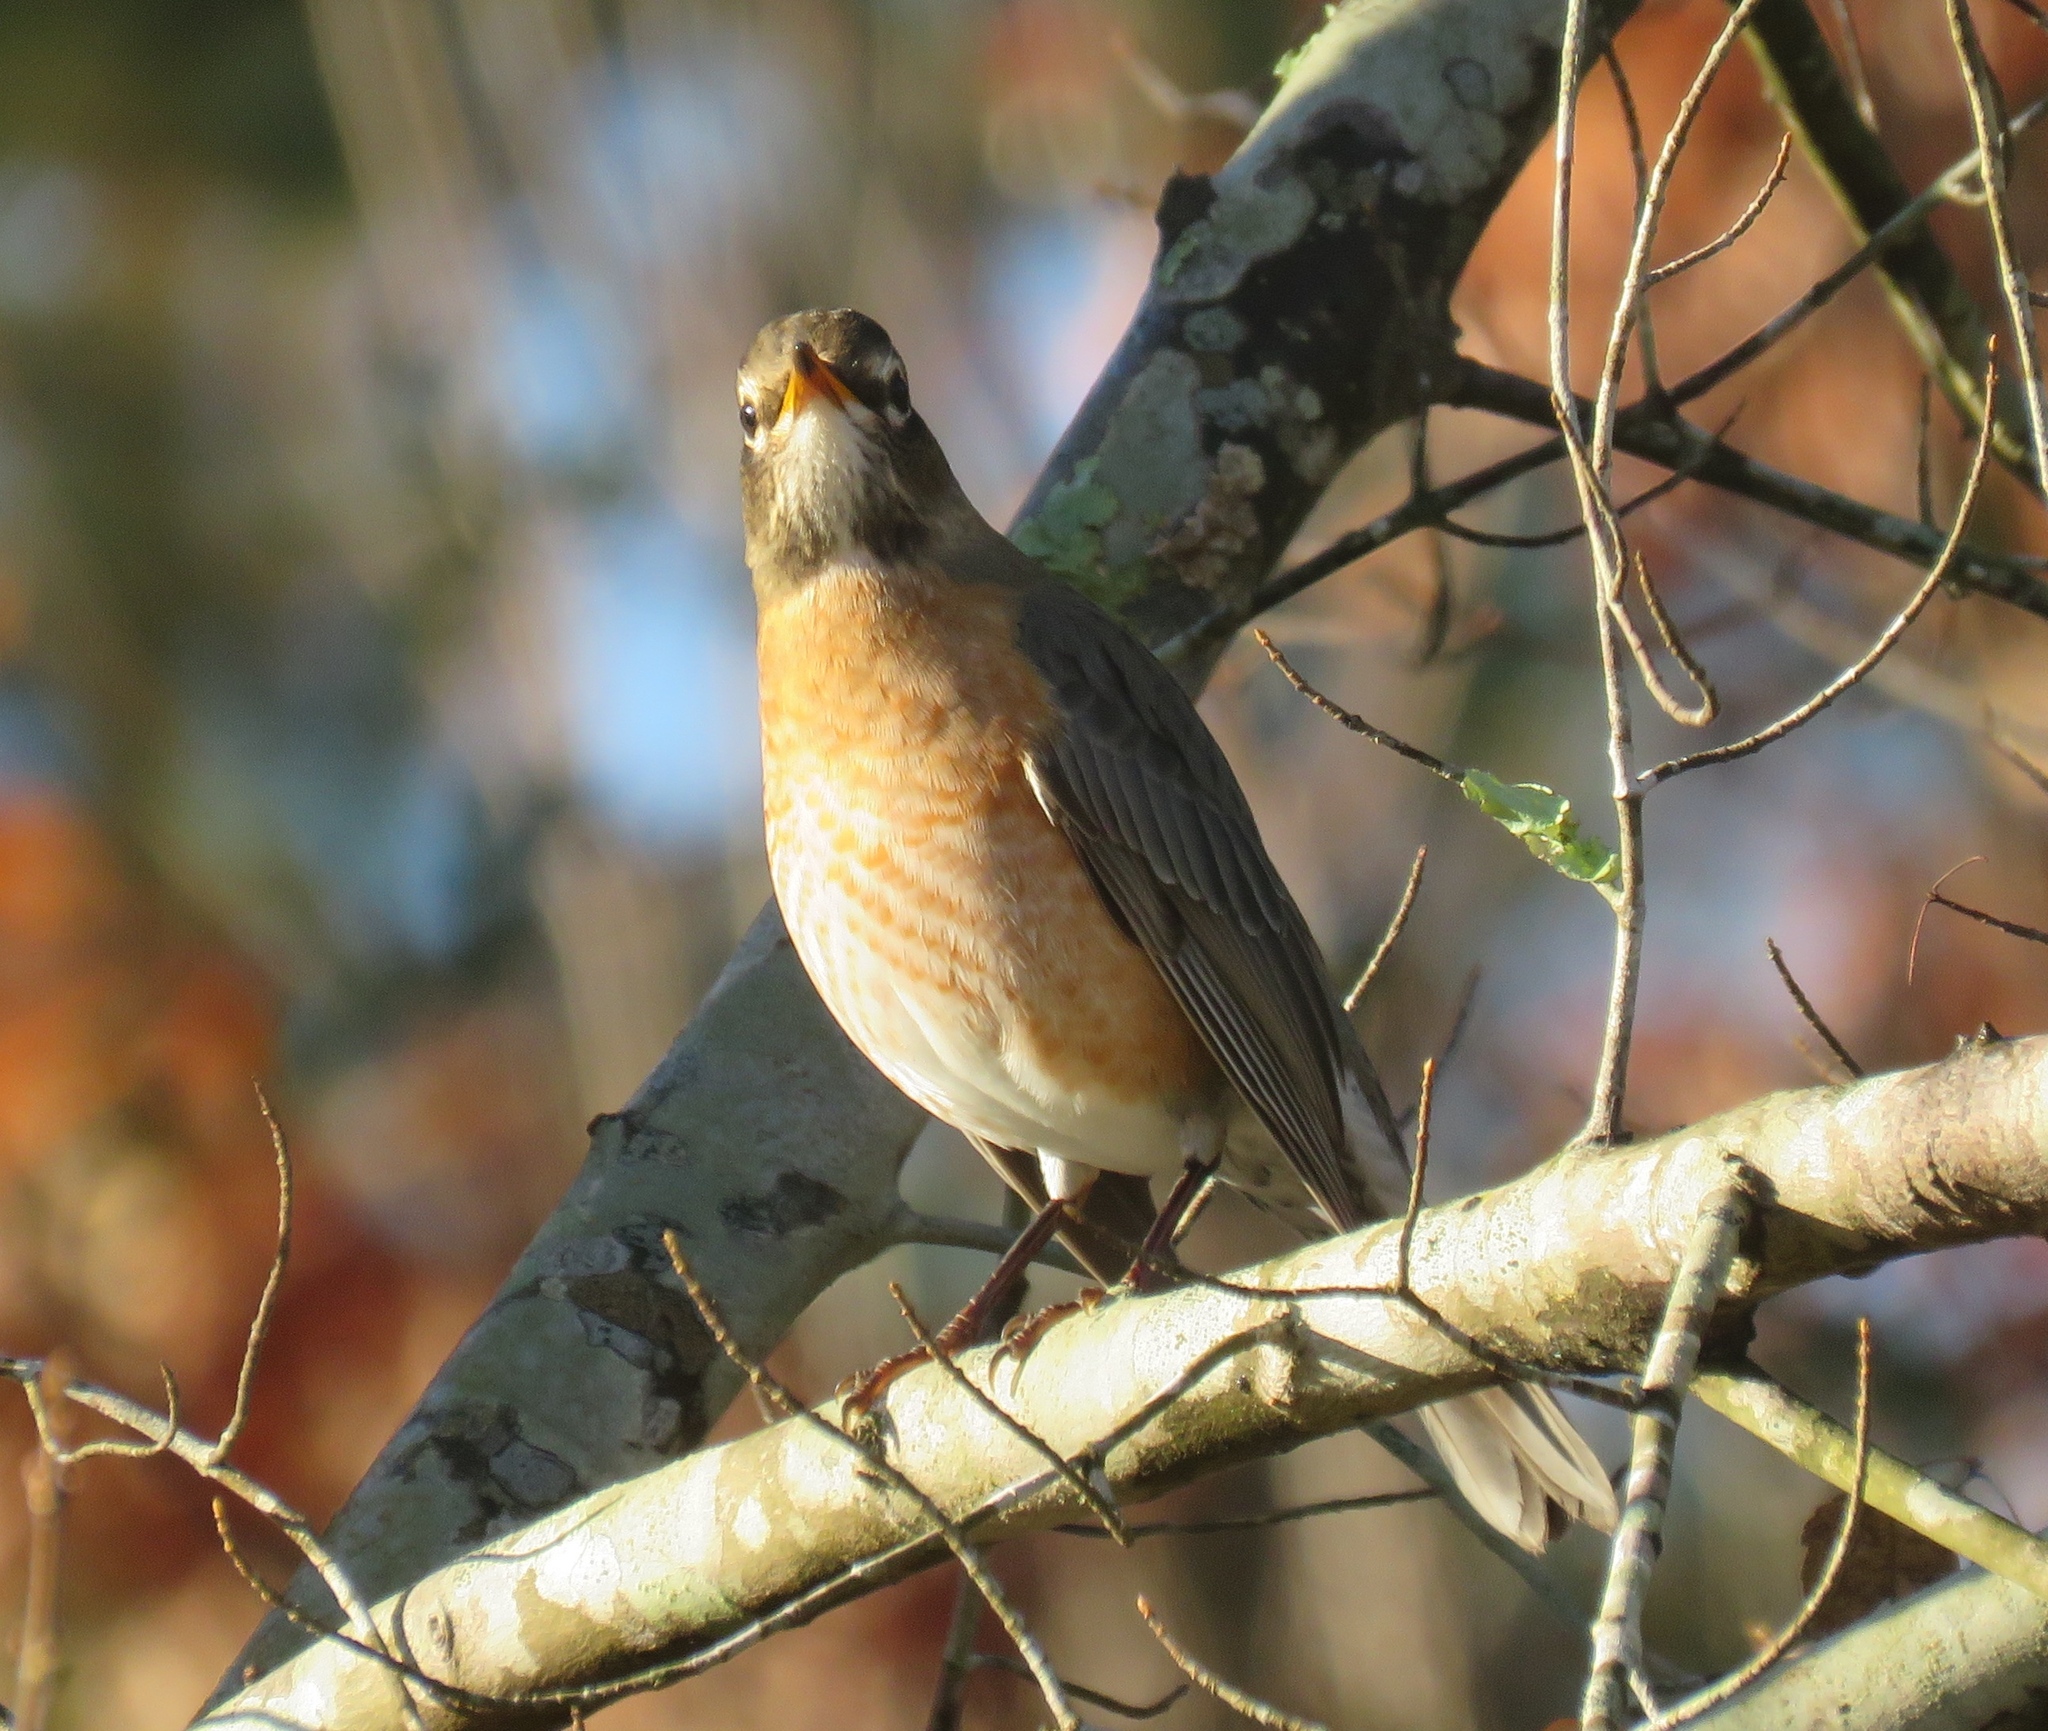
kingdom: Animalia
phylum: Chordata
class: Aves
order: Passeriformes
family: Turdidae
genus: Turdus
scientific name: Turdus migratorius
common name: American robin
